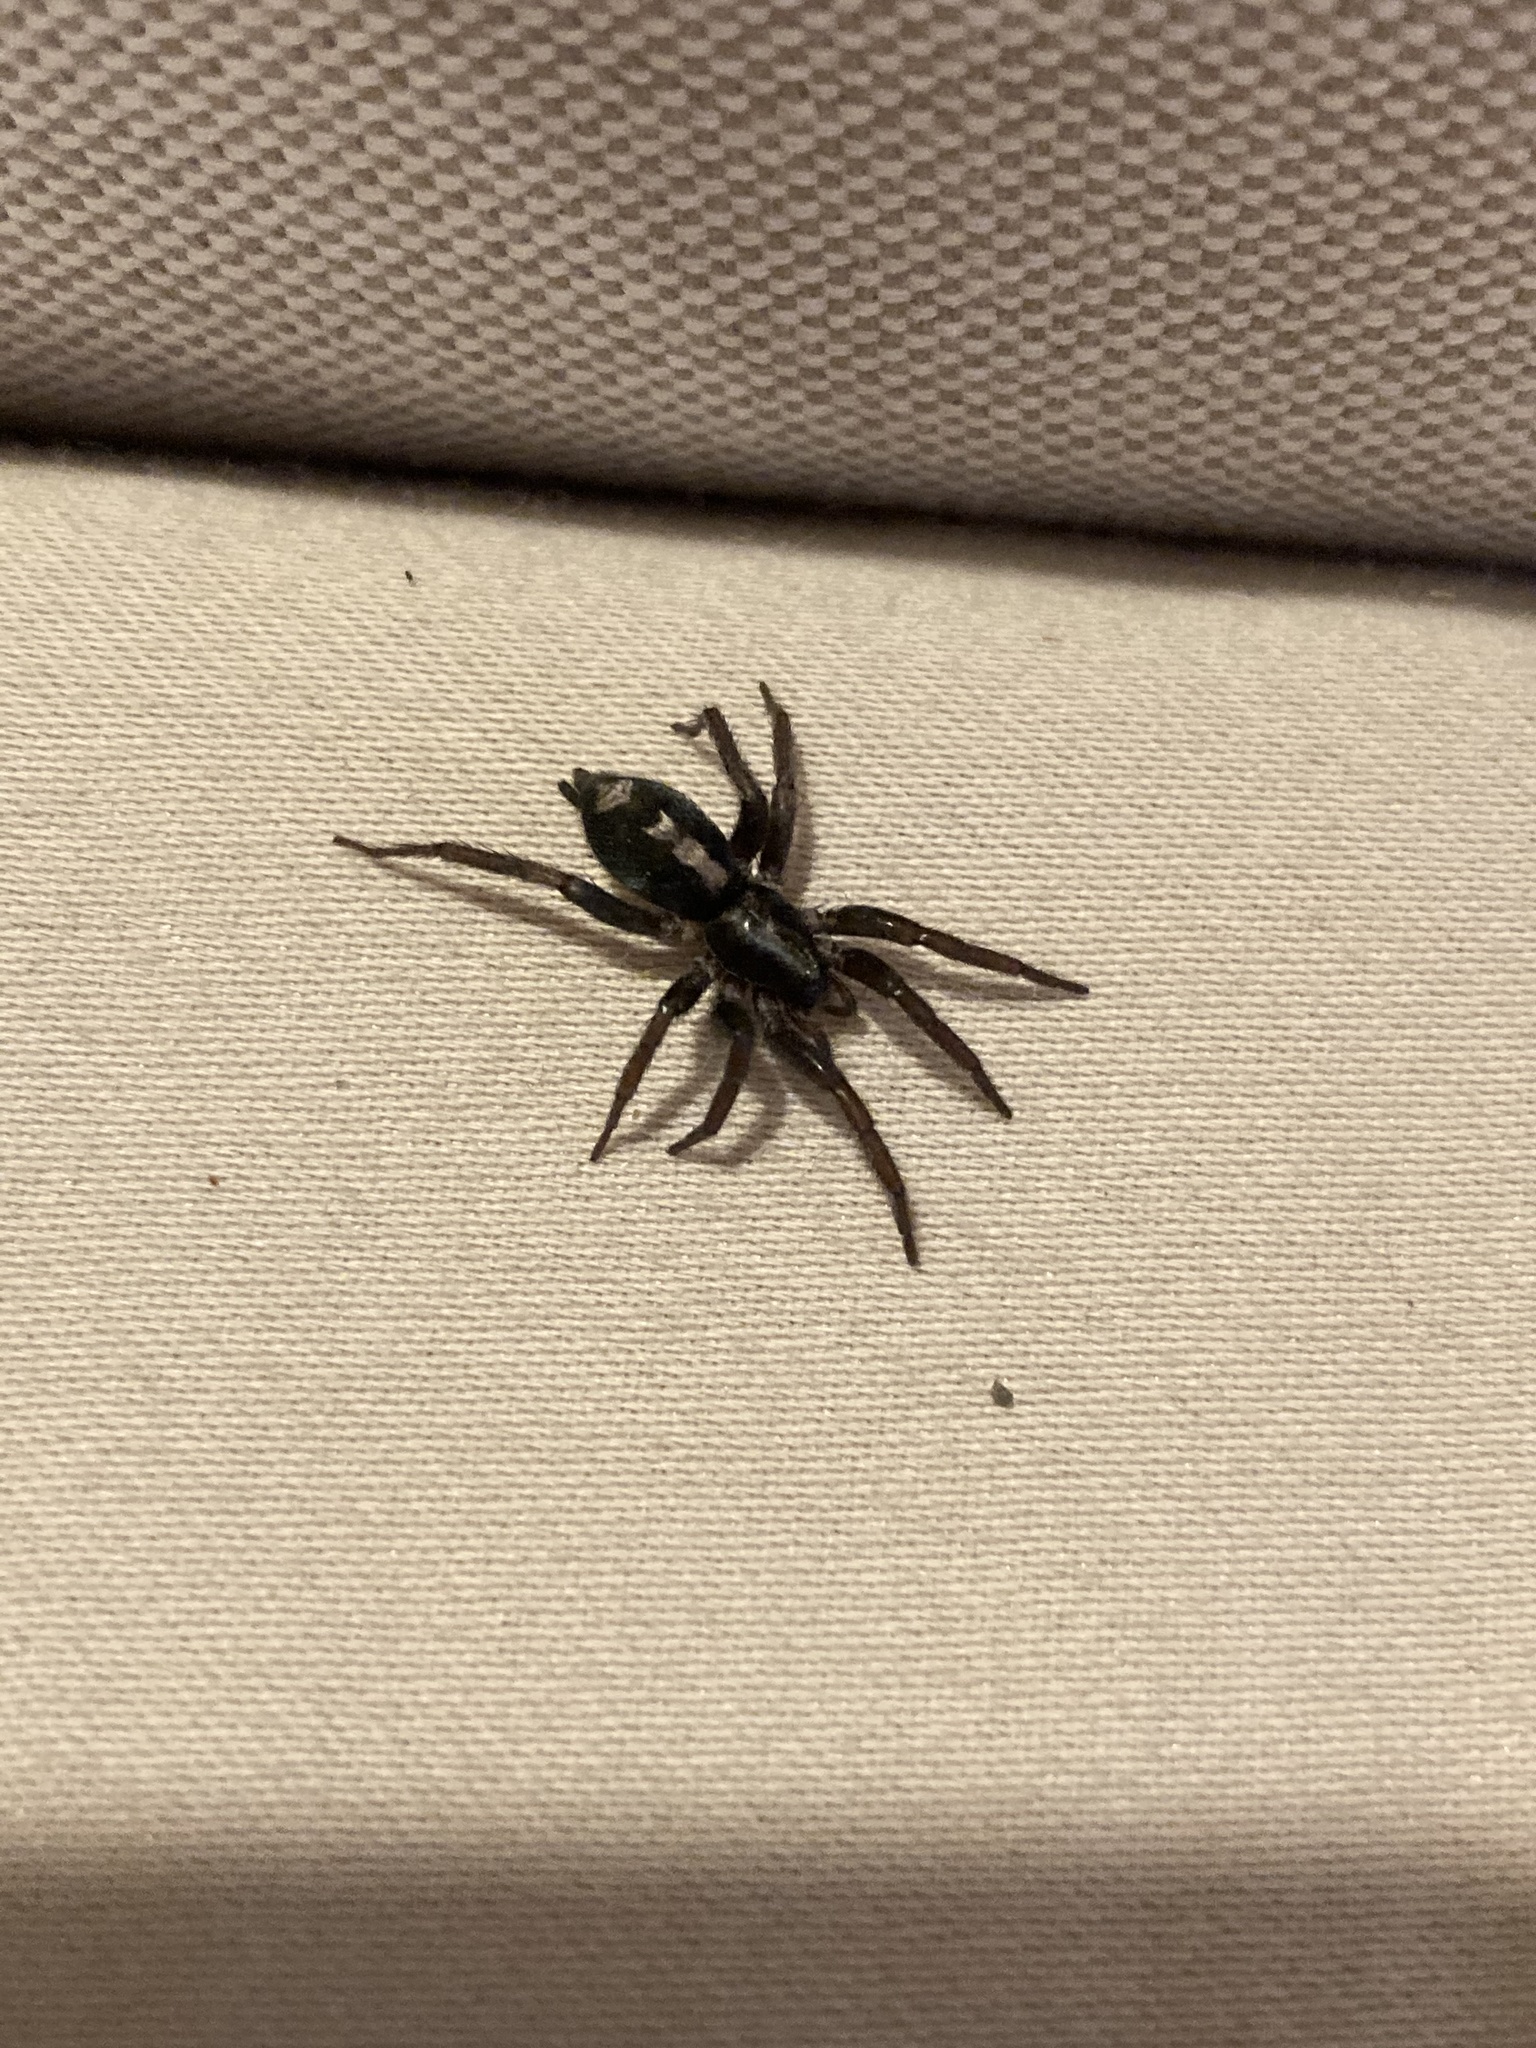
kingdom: Animalia
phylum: Arthropoda
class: Arachnida
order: Araneae
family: Gnaphosidae
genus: Herpyllus
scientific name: Herpyllus ecclesiasticus
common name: Eastern parson spider
